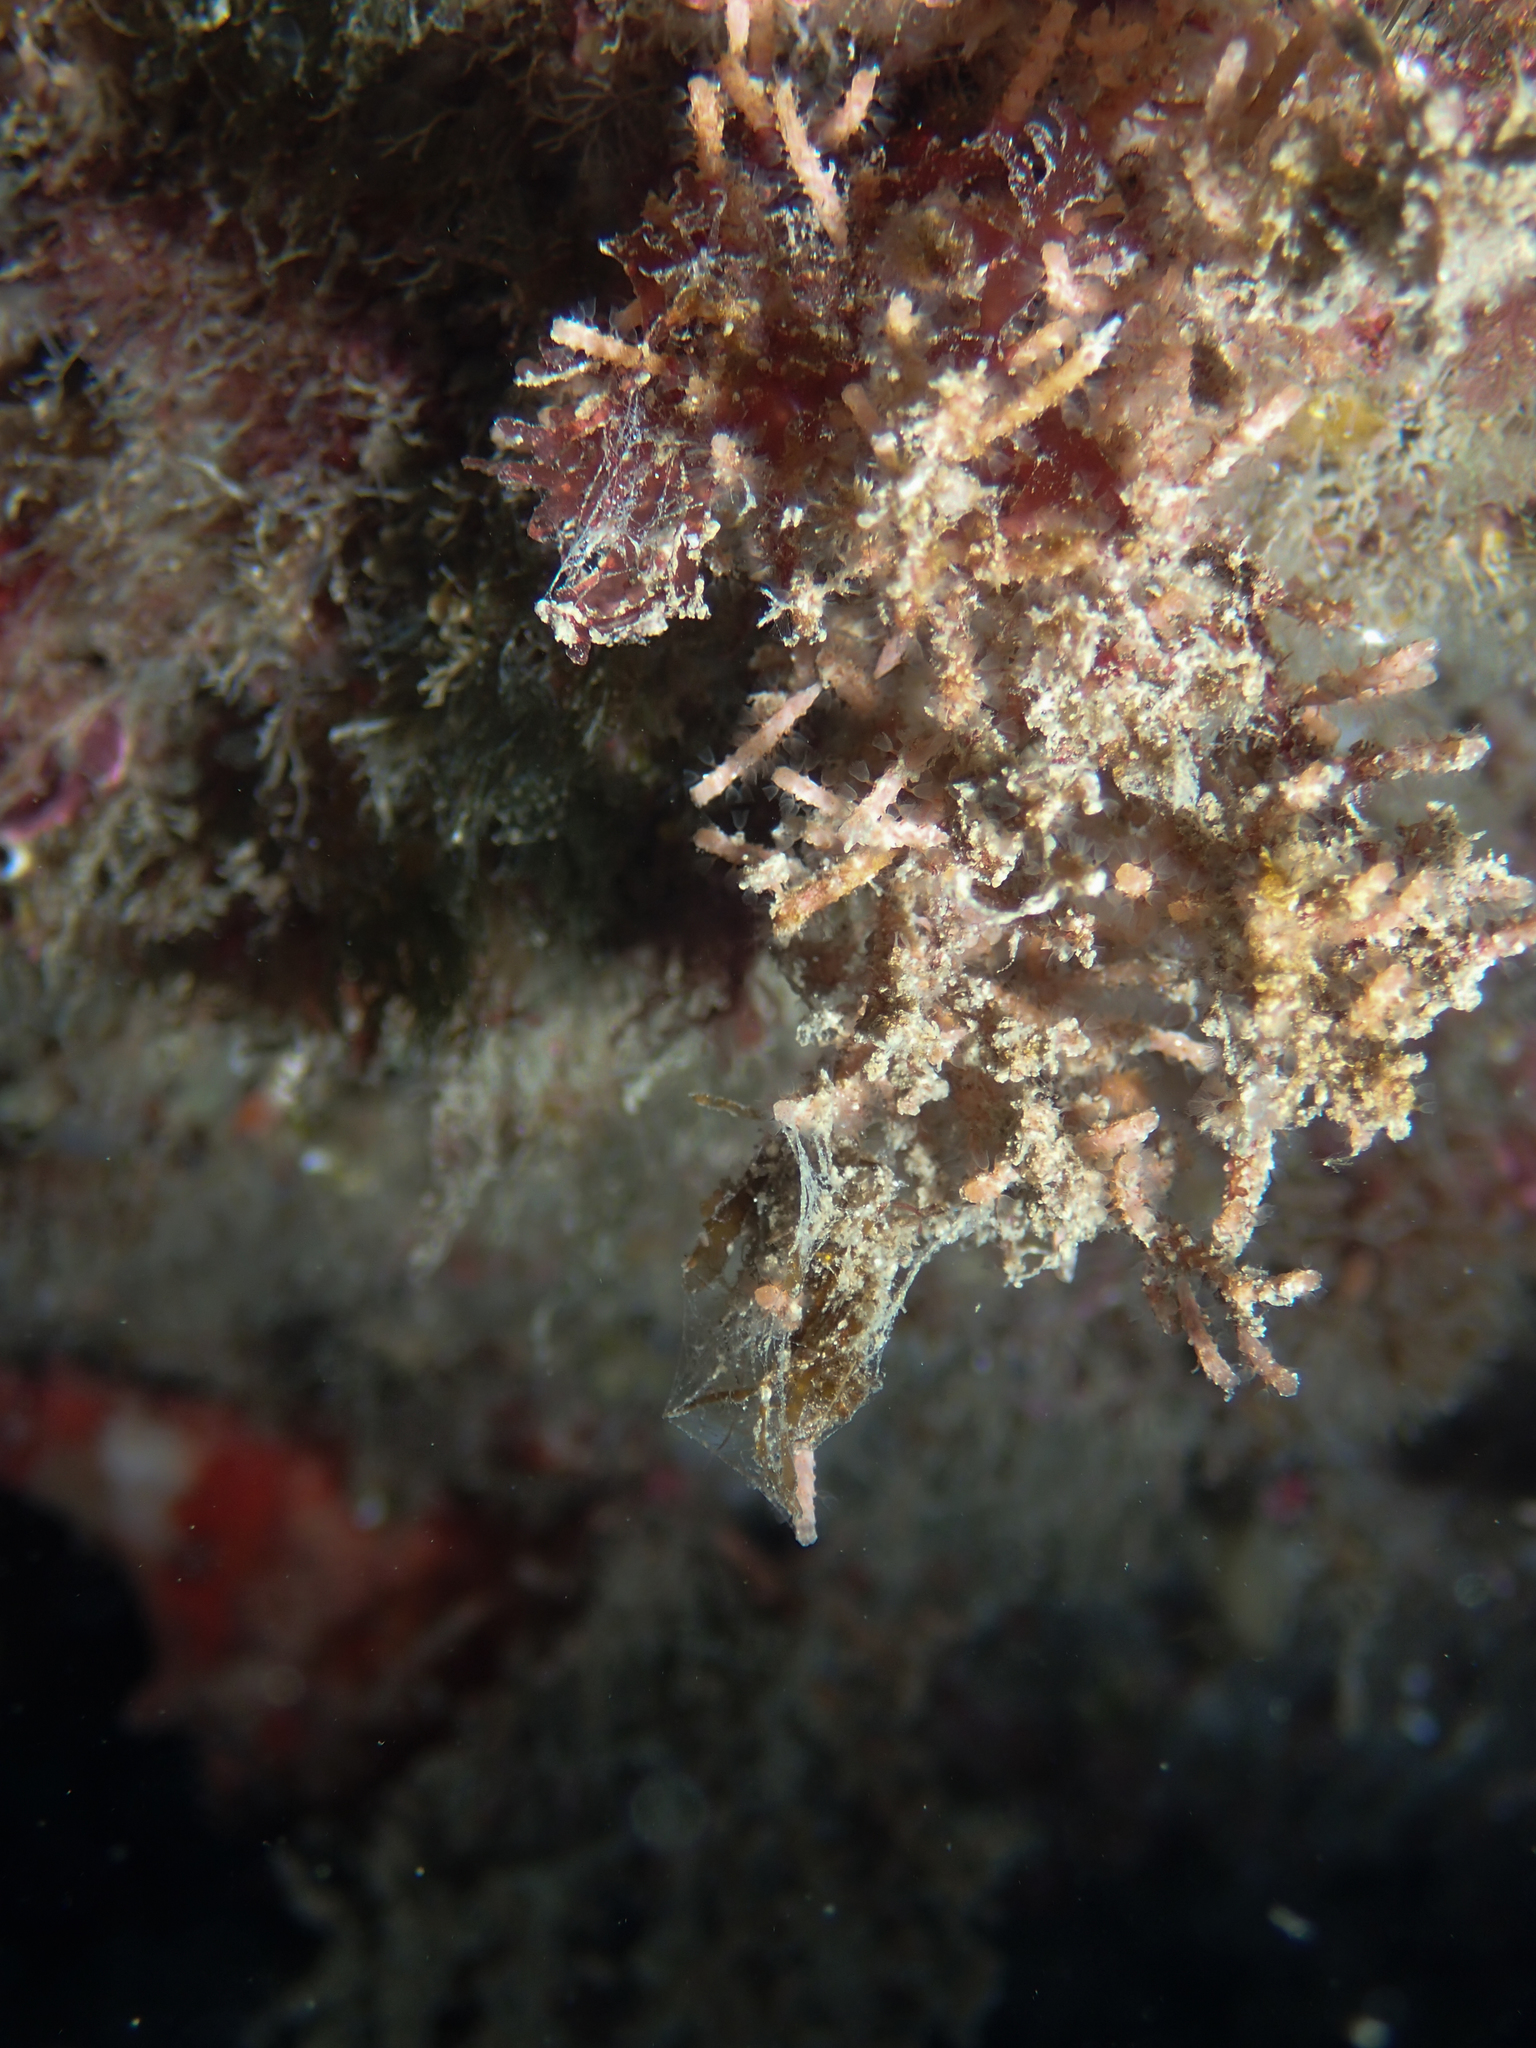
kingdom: Animalia
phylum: Bryozoa
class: Gymnolaemata
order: Cheilostomatida
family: Margarettidae
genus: Margaretta
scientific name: Margaretta cereoides
